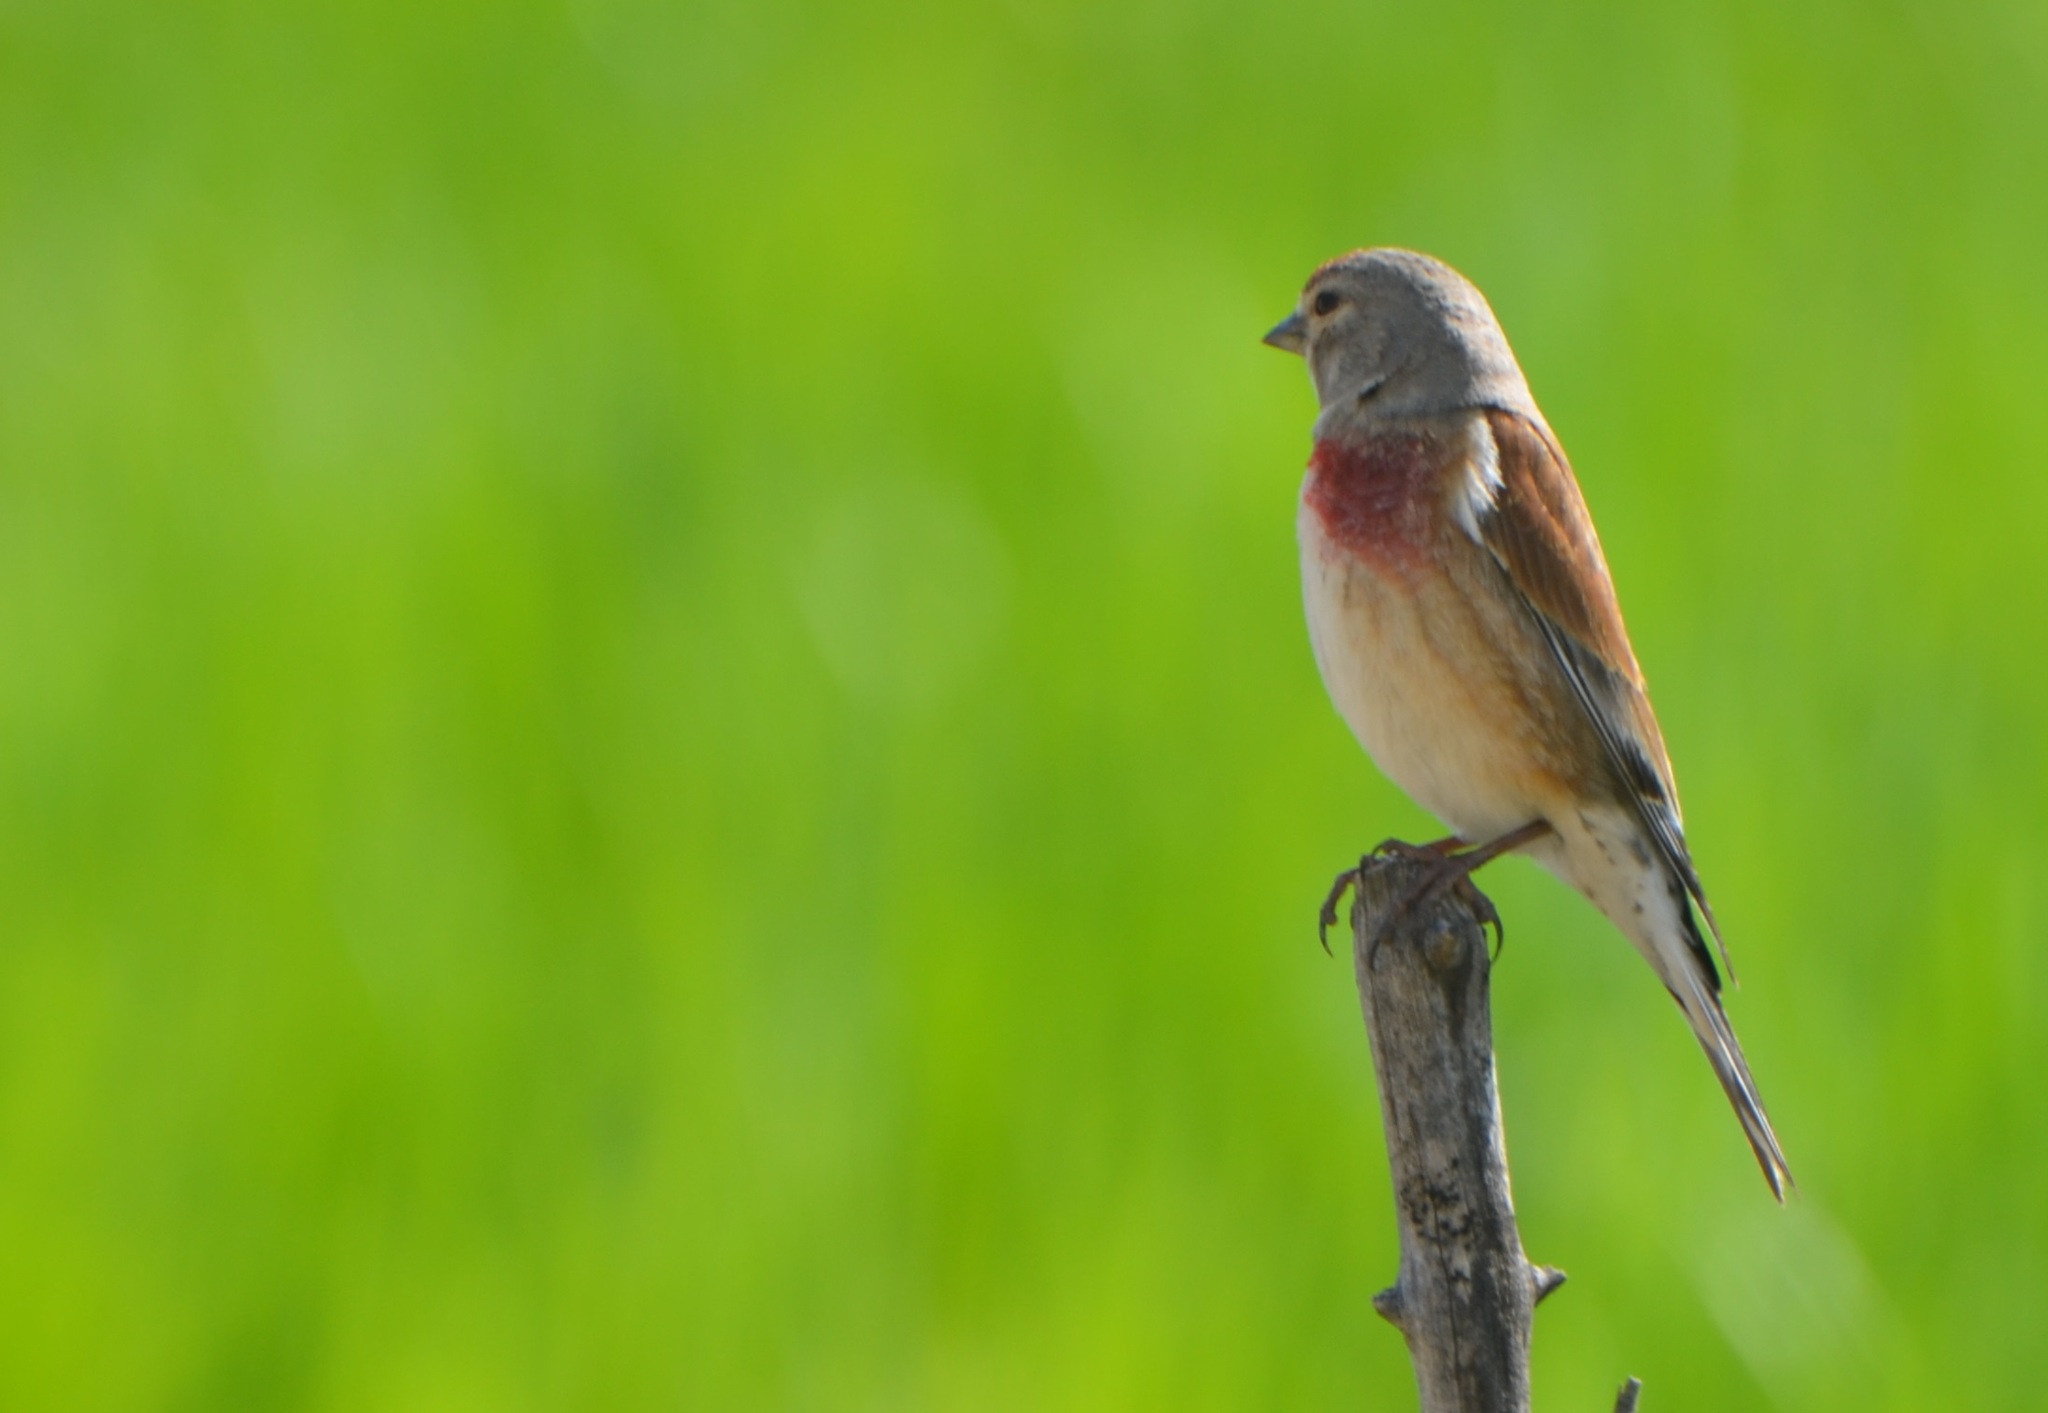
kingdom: Animalia
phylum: Chordata
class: Aves
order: Passeriformes
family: Fringillidae
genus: Linaria
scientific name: Linaria cannabina
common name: Common linnet
